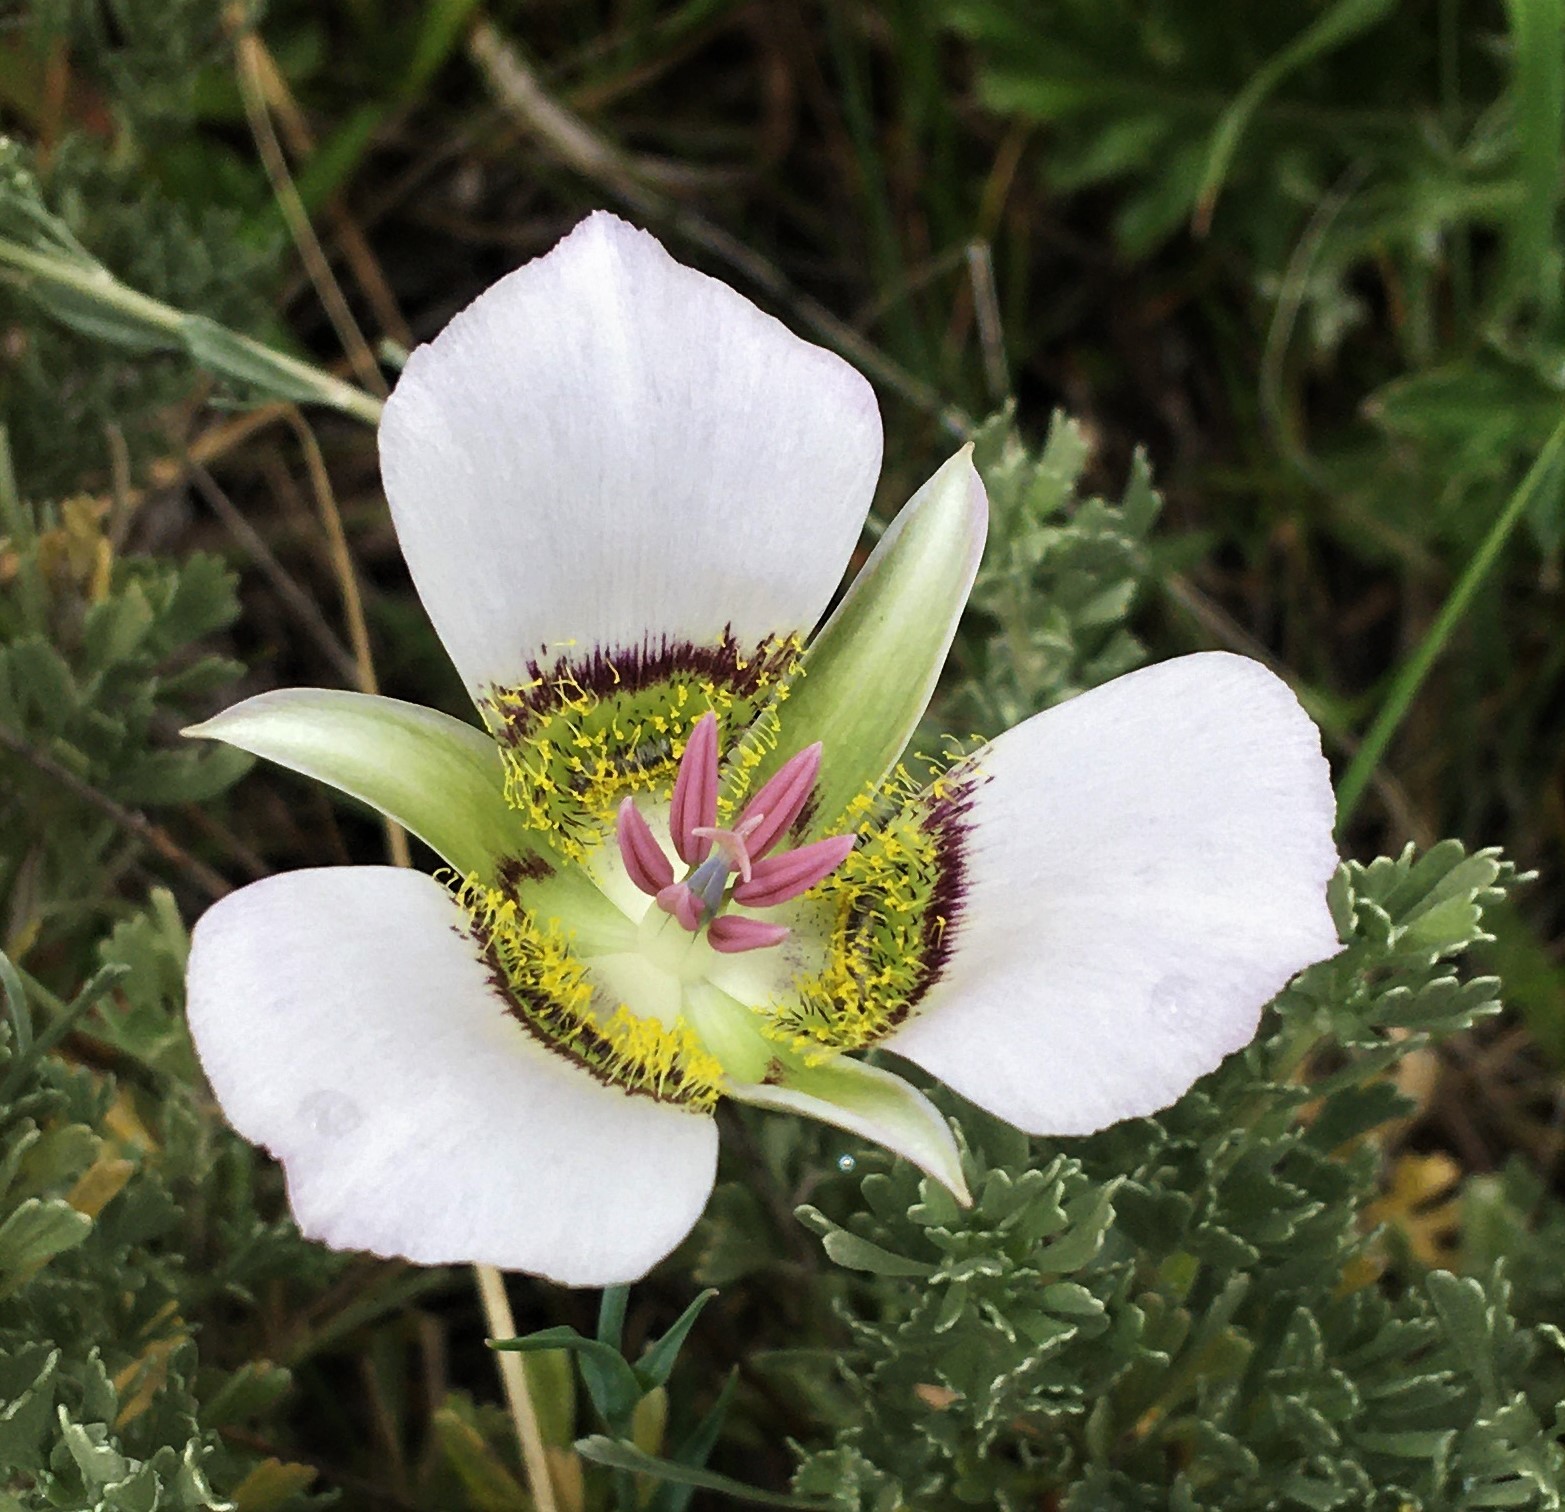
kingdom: Plantae
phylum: Tracheophyta
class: Liliopsida
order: Liliales
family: Liliaceae
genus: Calochortus
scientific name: Calochortus gunnisonii
